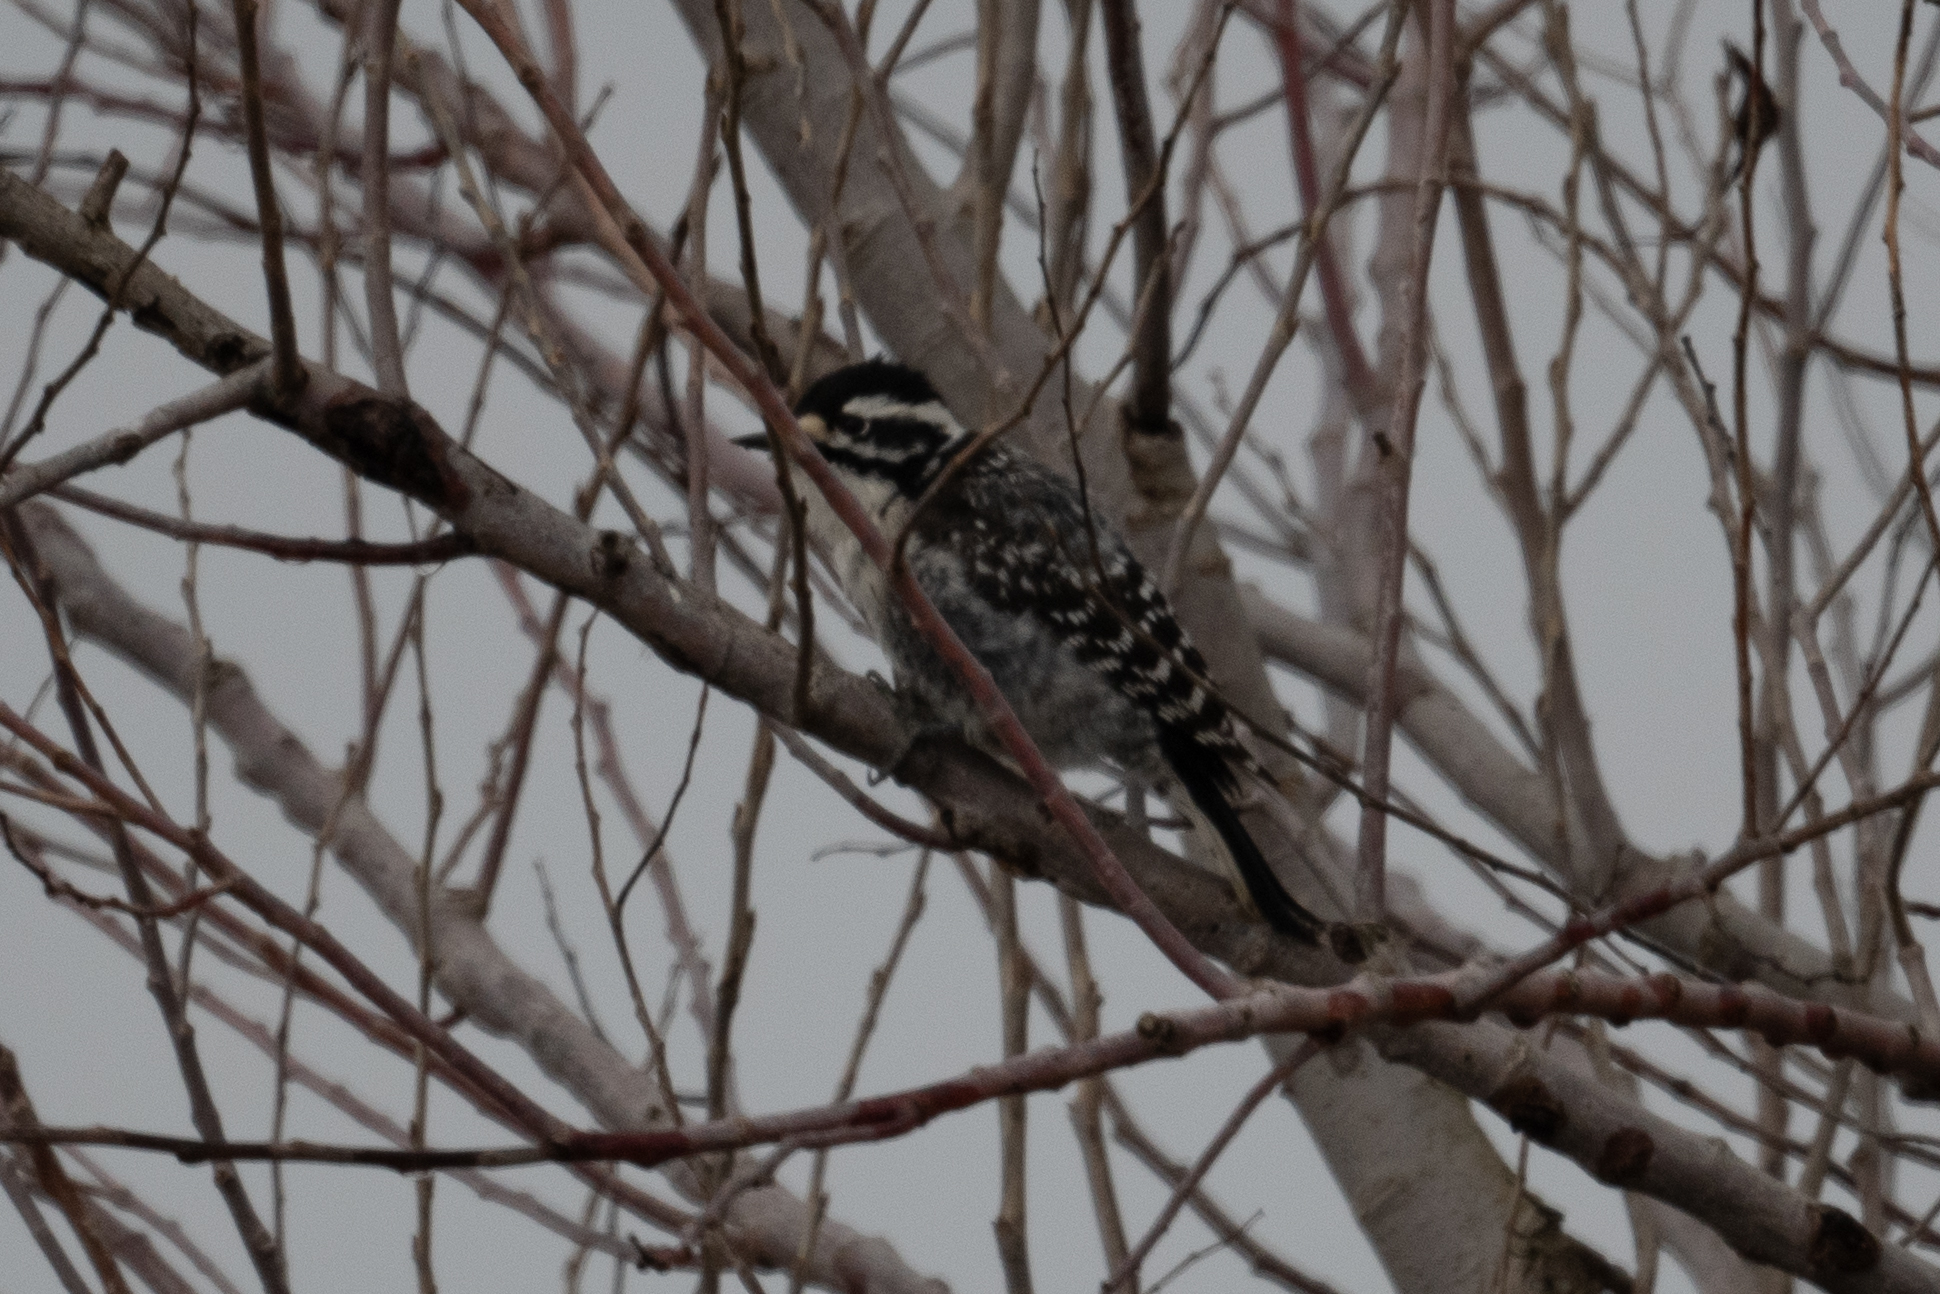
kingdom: Animalia
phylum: Chordata
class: Aves
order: Piciformes
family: Picidae
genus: Dryobates
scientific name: Dryobates nuttallii
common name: Nuttall's woodpecker
